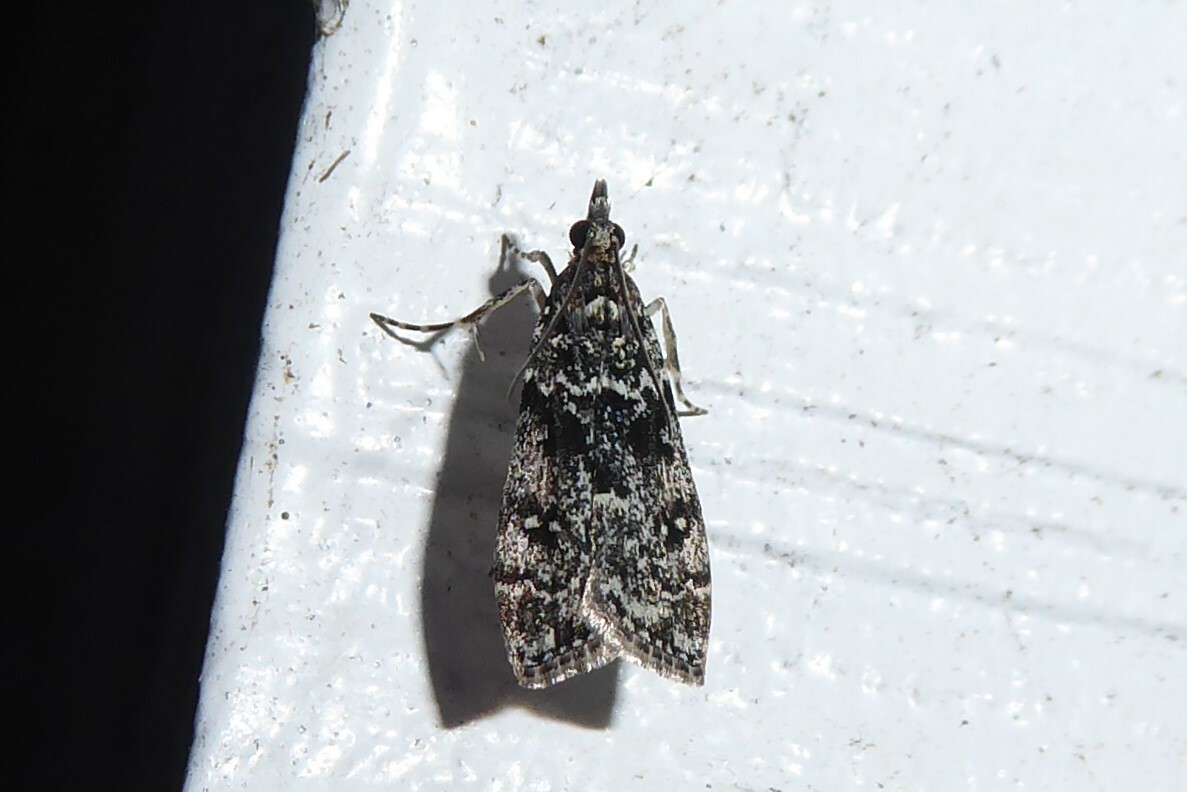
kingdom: Animalia
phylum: Arthropoda
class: Insecta
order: Lepidoptera
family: Crambidae
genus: Eudonia
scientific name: Eudonia philerga
